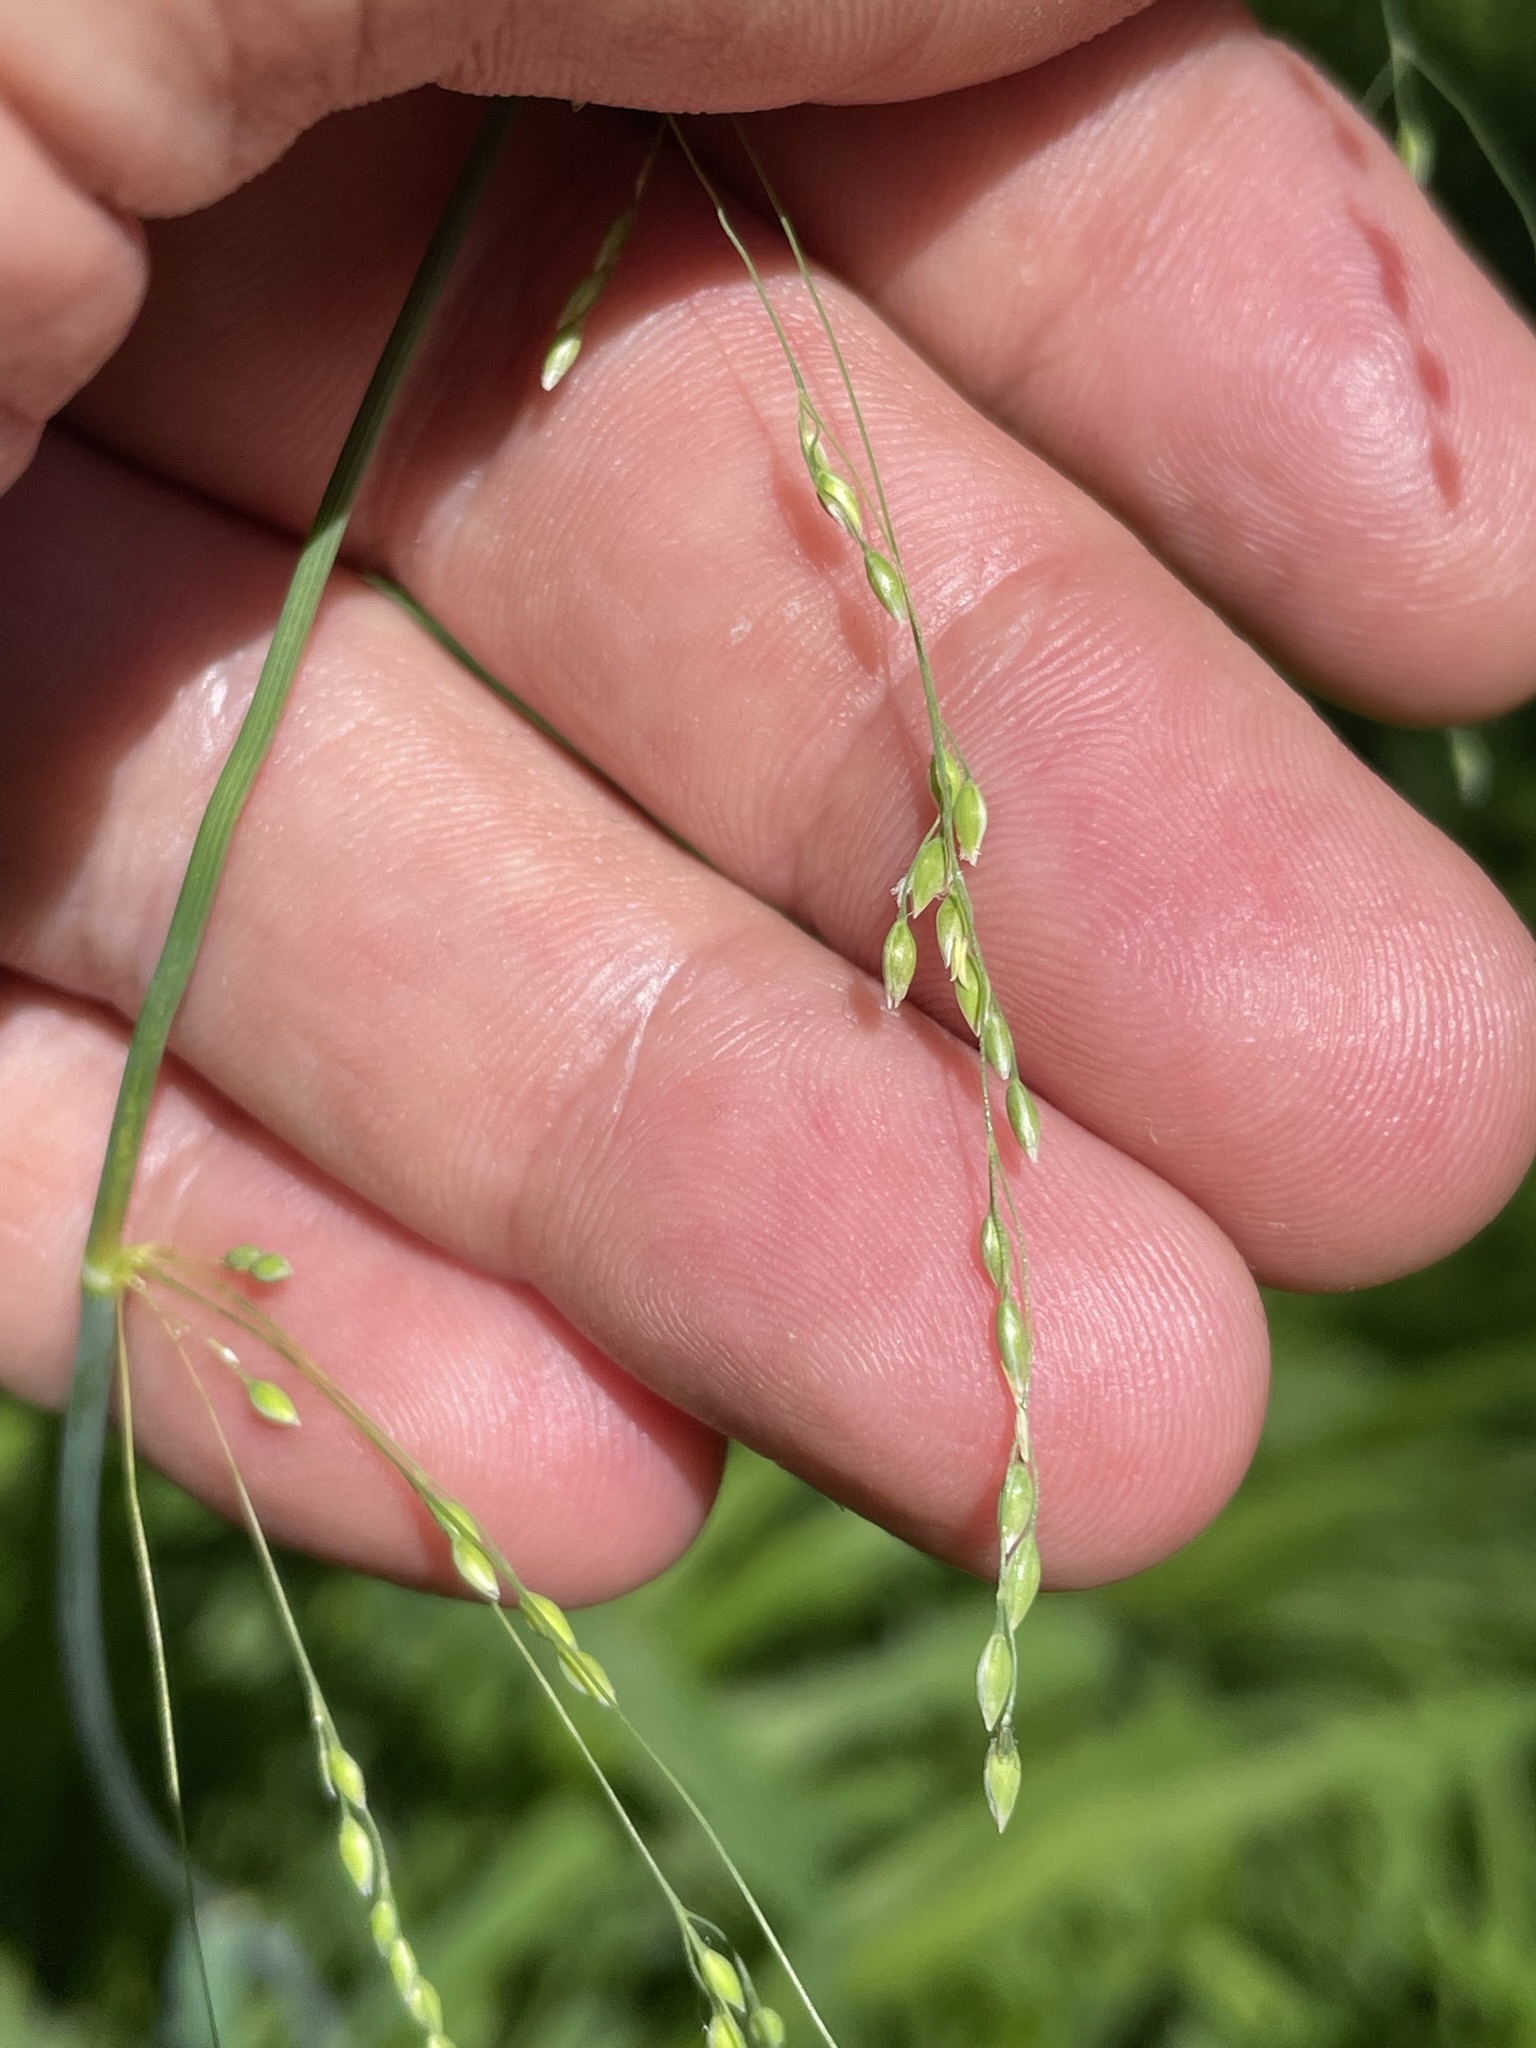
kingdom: Plantae
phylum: Tracheophyta
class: Liliopsida
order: Poales
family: Poaceae
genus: Milium
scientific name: Milium effusum
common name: Wood millet
